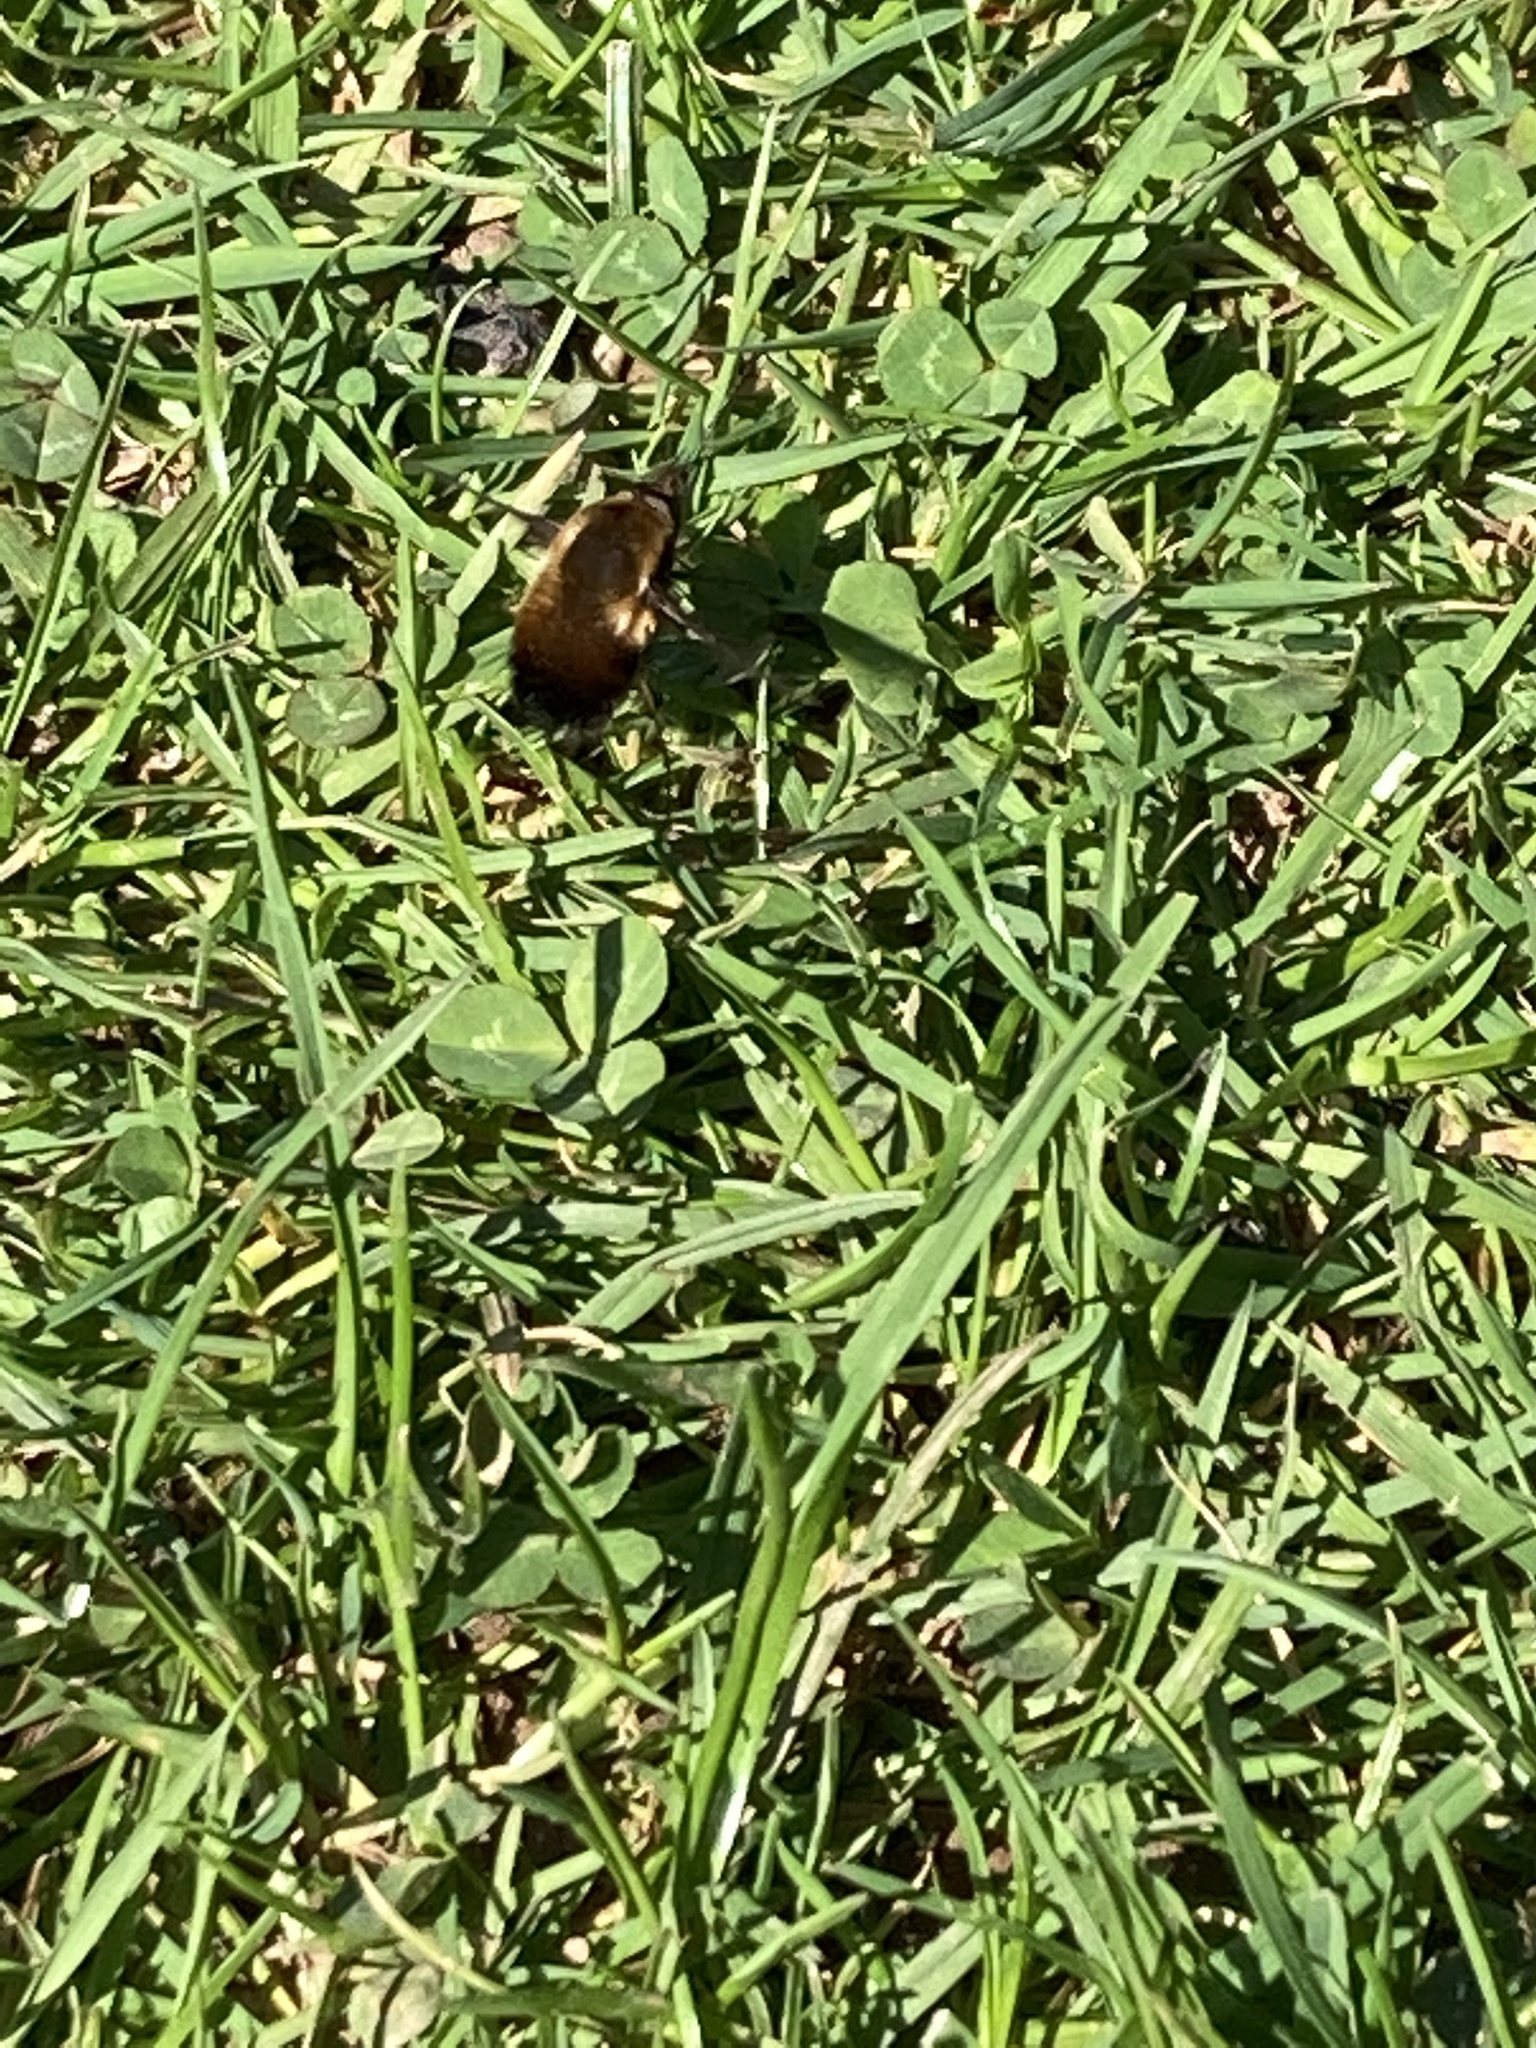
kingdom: Animalia
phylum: Arthropoda
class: Insecta
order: Diptera
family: Bombyliidae
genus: Bombylius
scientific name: Bombylius discolor
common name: Dotted bee-fly
